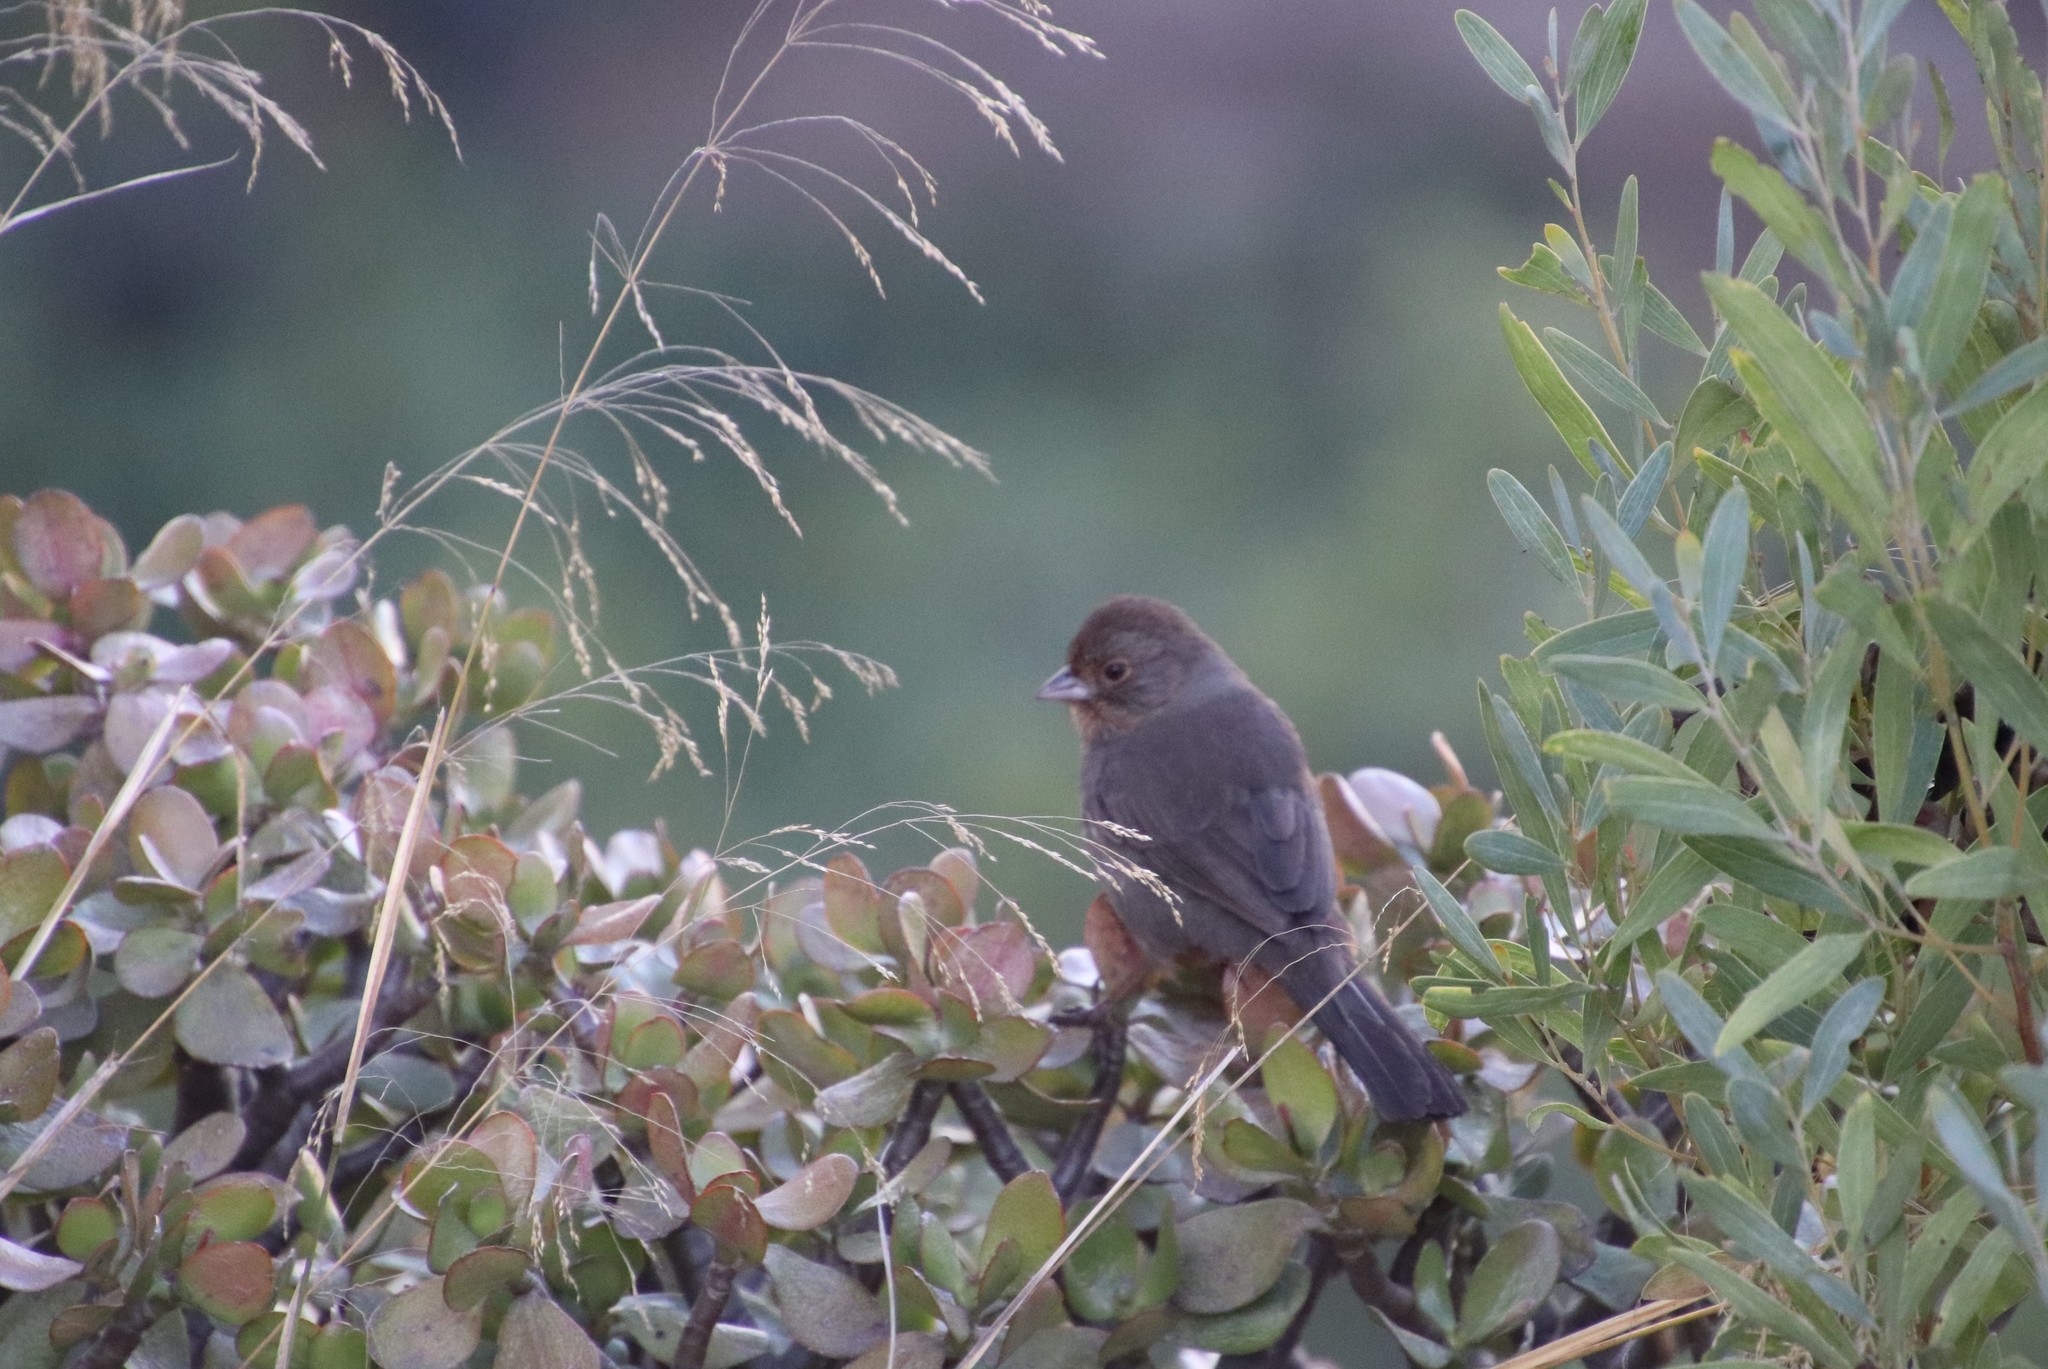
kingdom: Animalia
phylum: Chordata
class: Aves
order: Passeriformes
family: Passerellidae
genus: Melozone
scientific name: Melozone crissalis
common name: California towhee
